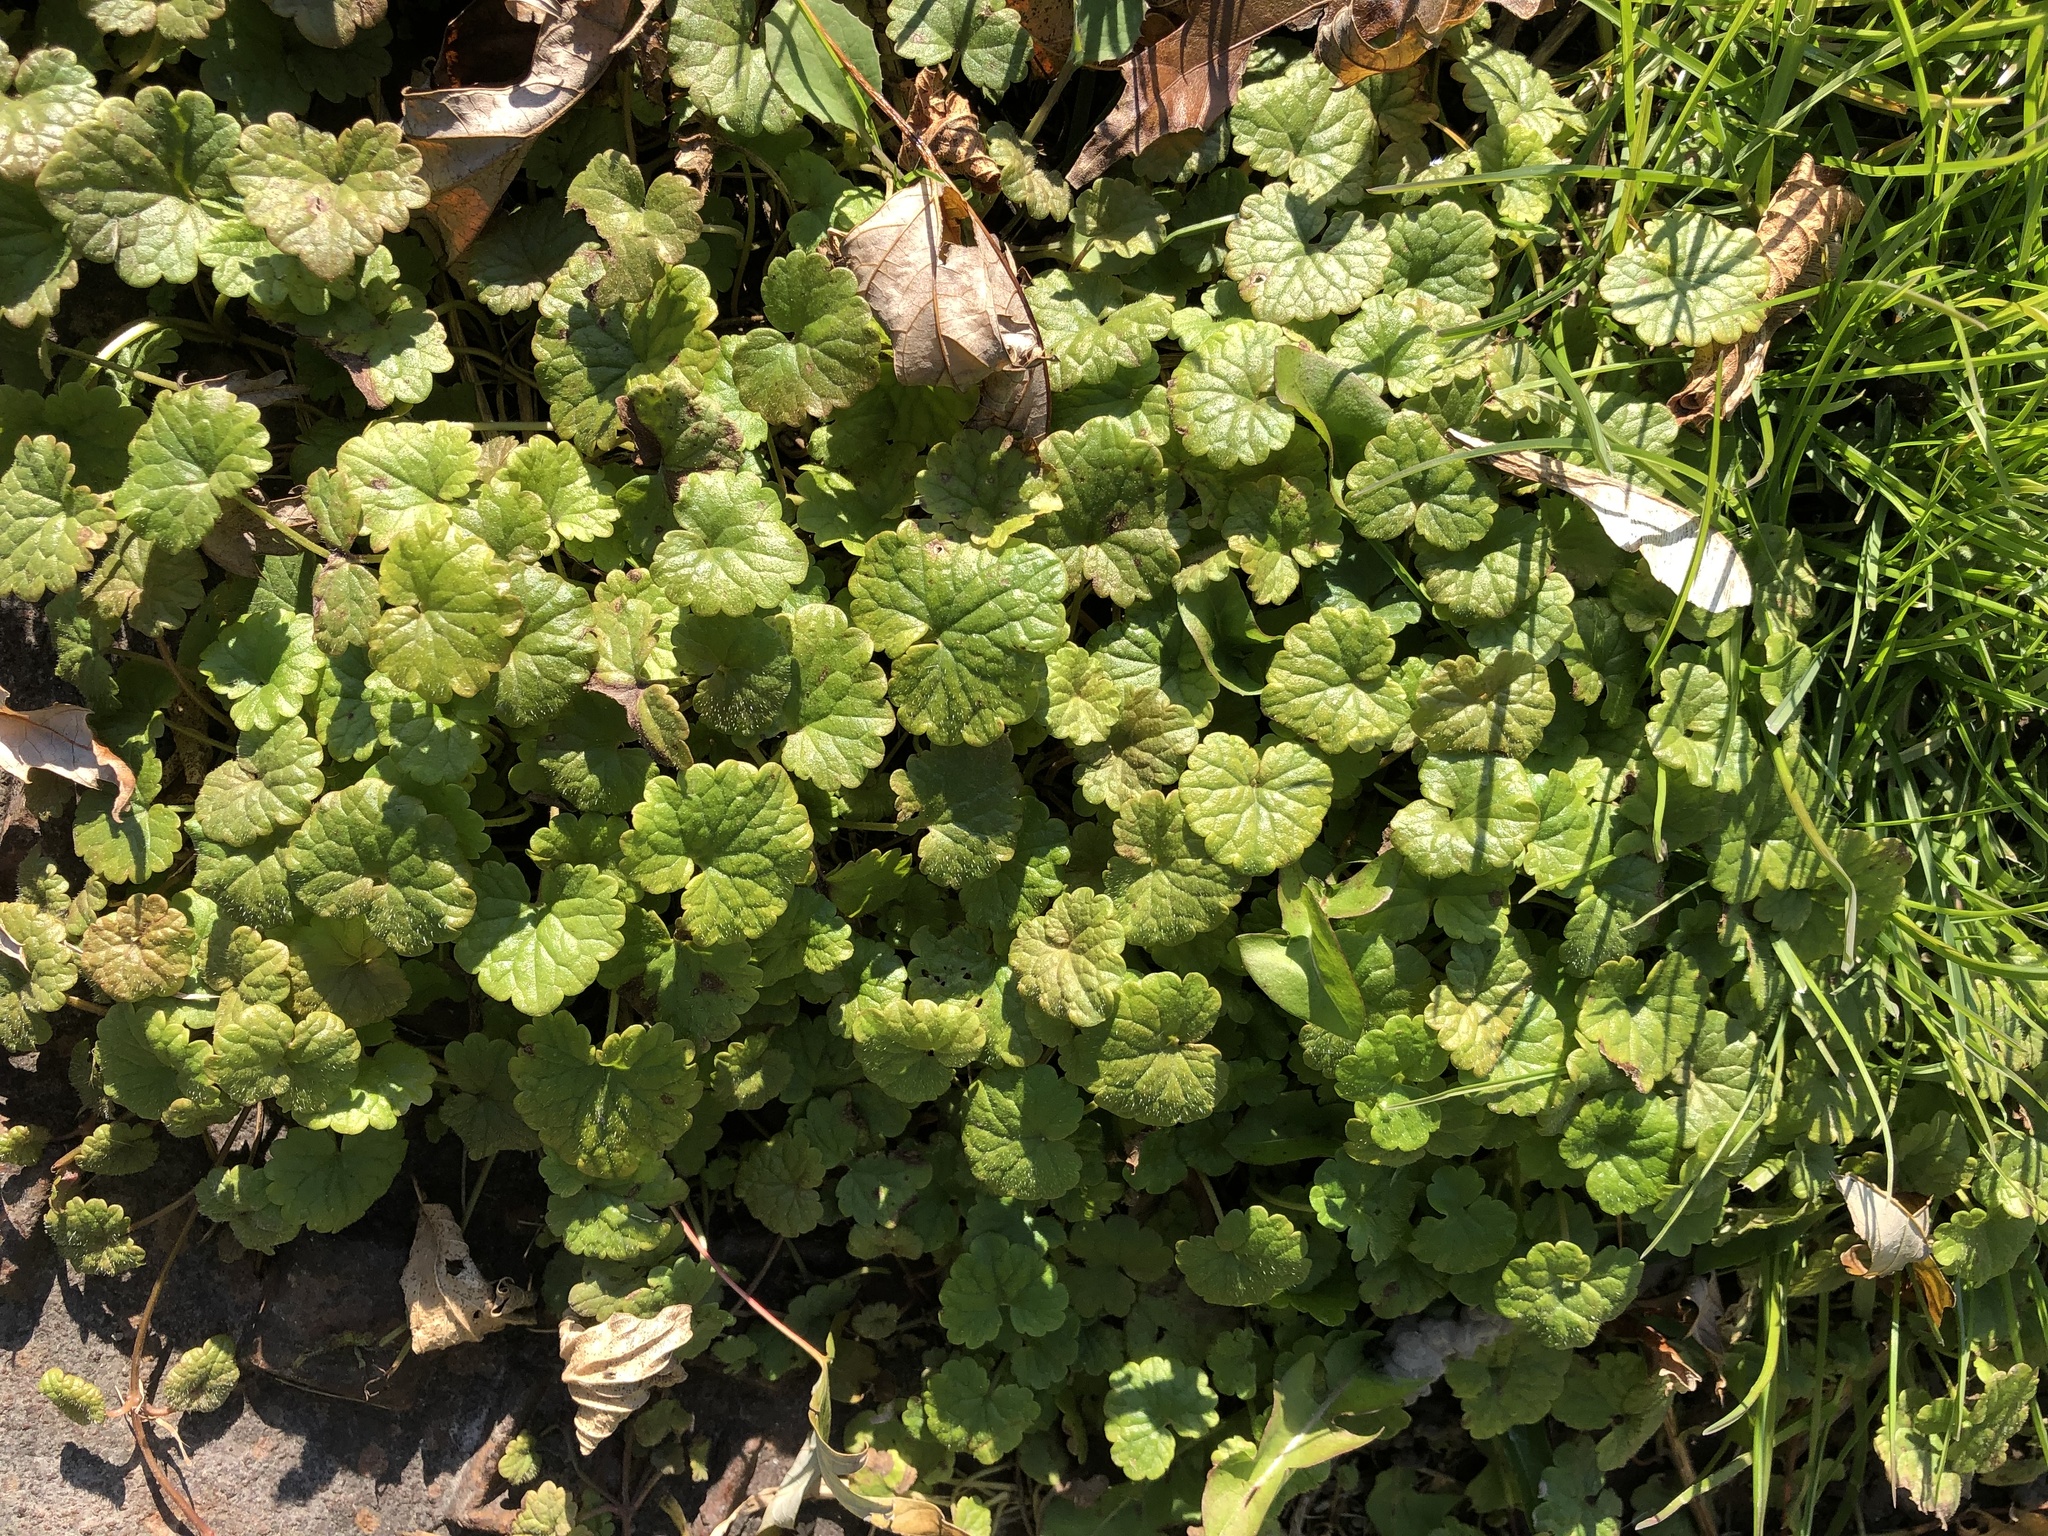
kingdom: Plantae
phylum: Tracheophyta
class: Magnoliopsida
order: Lamiales
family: Lamiaceae
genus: Glechoma
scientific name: Glechoma hederacea
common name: Ground ivy
